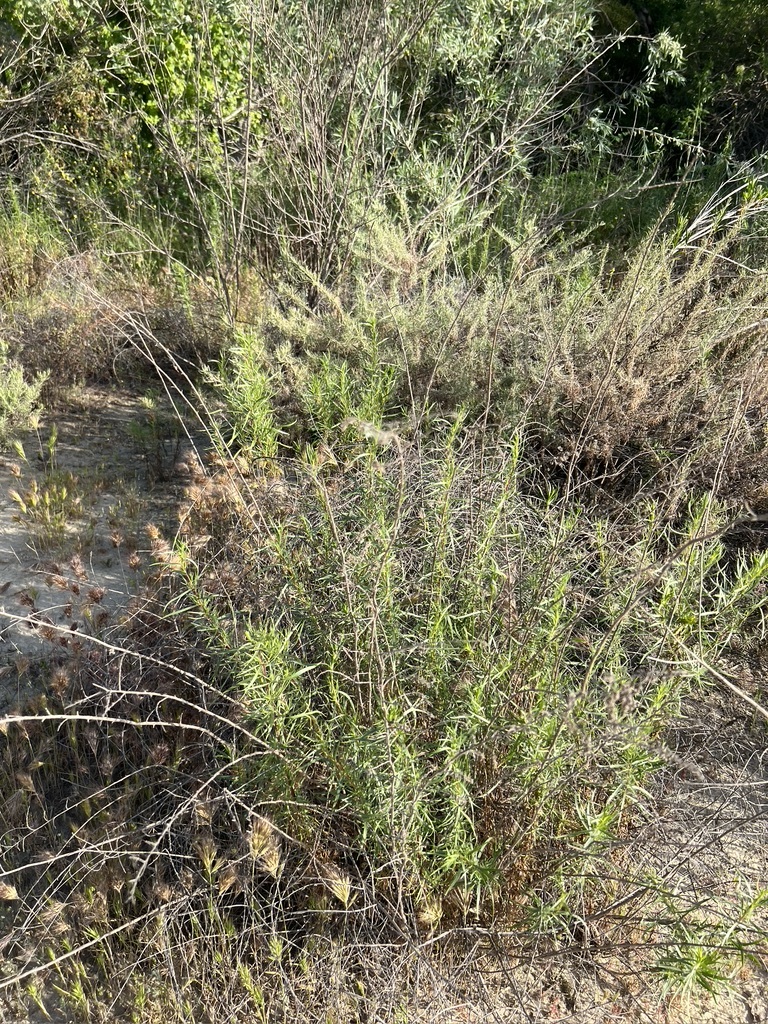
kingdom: Plantae
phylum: Tracheophyta
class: Magnoliopsida
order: Asterales
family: Asteraceae
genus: Artemisia
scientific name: Artemisia dracunculus
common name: Tarragon
